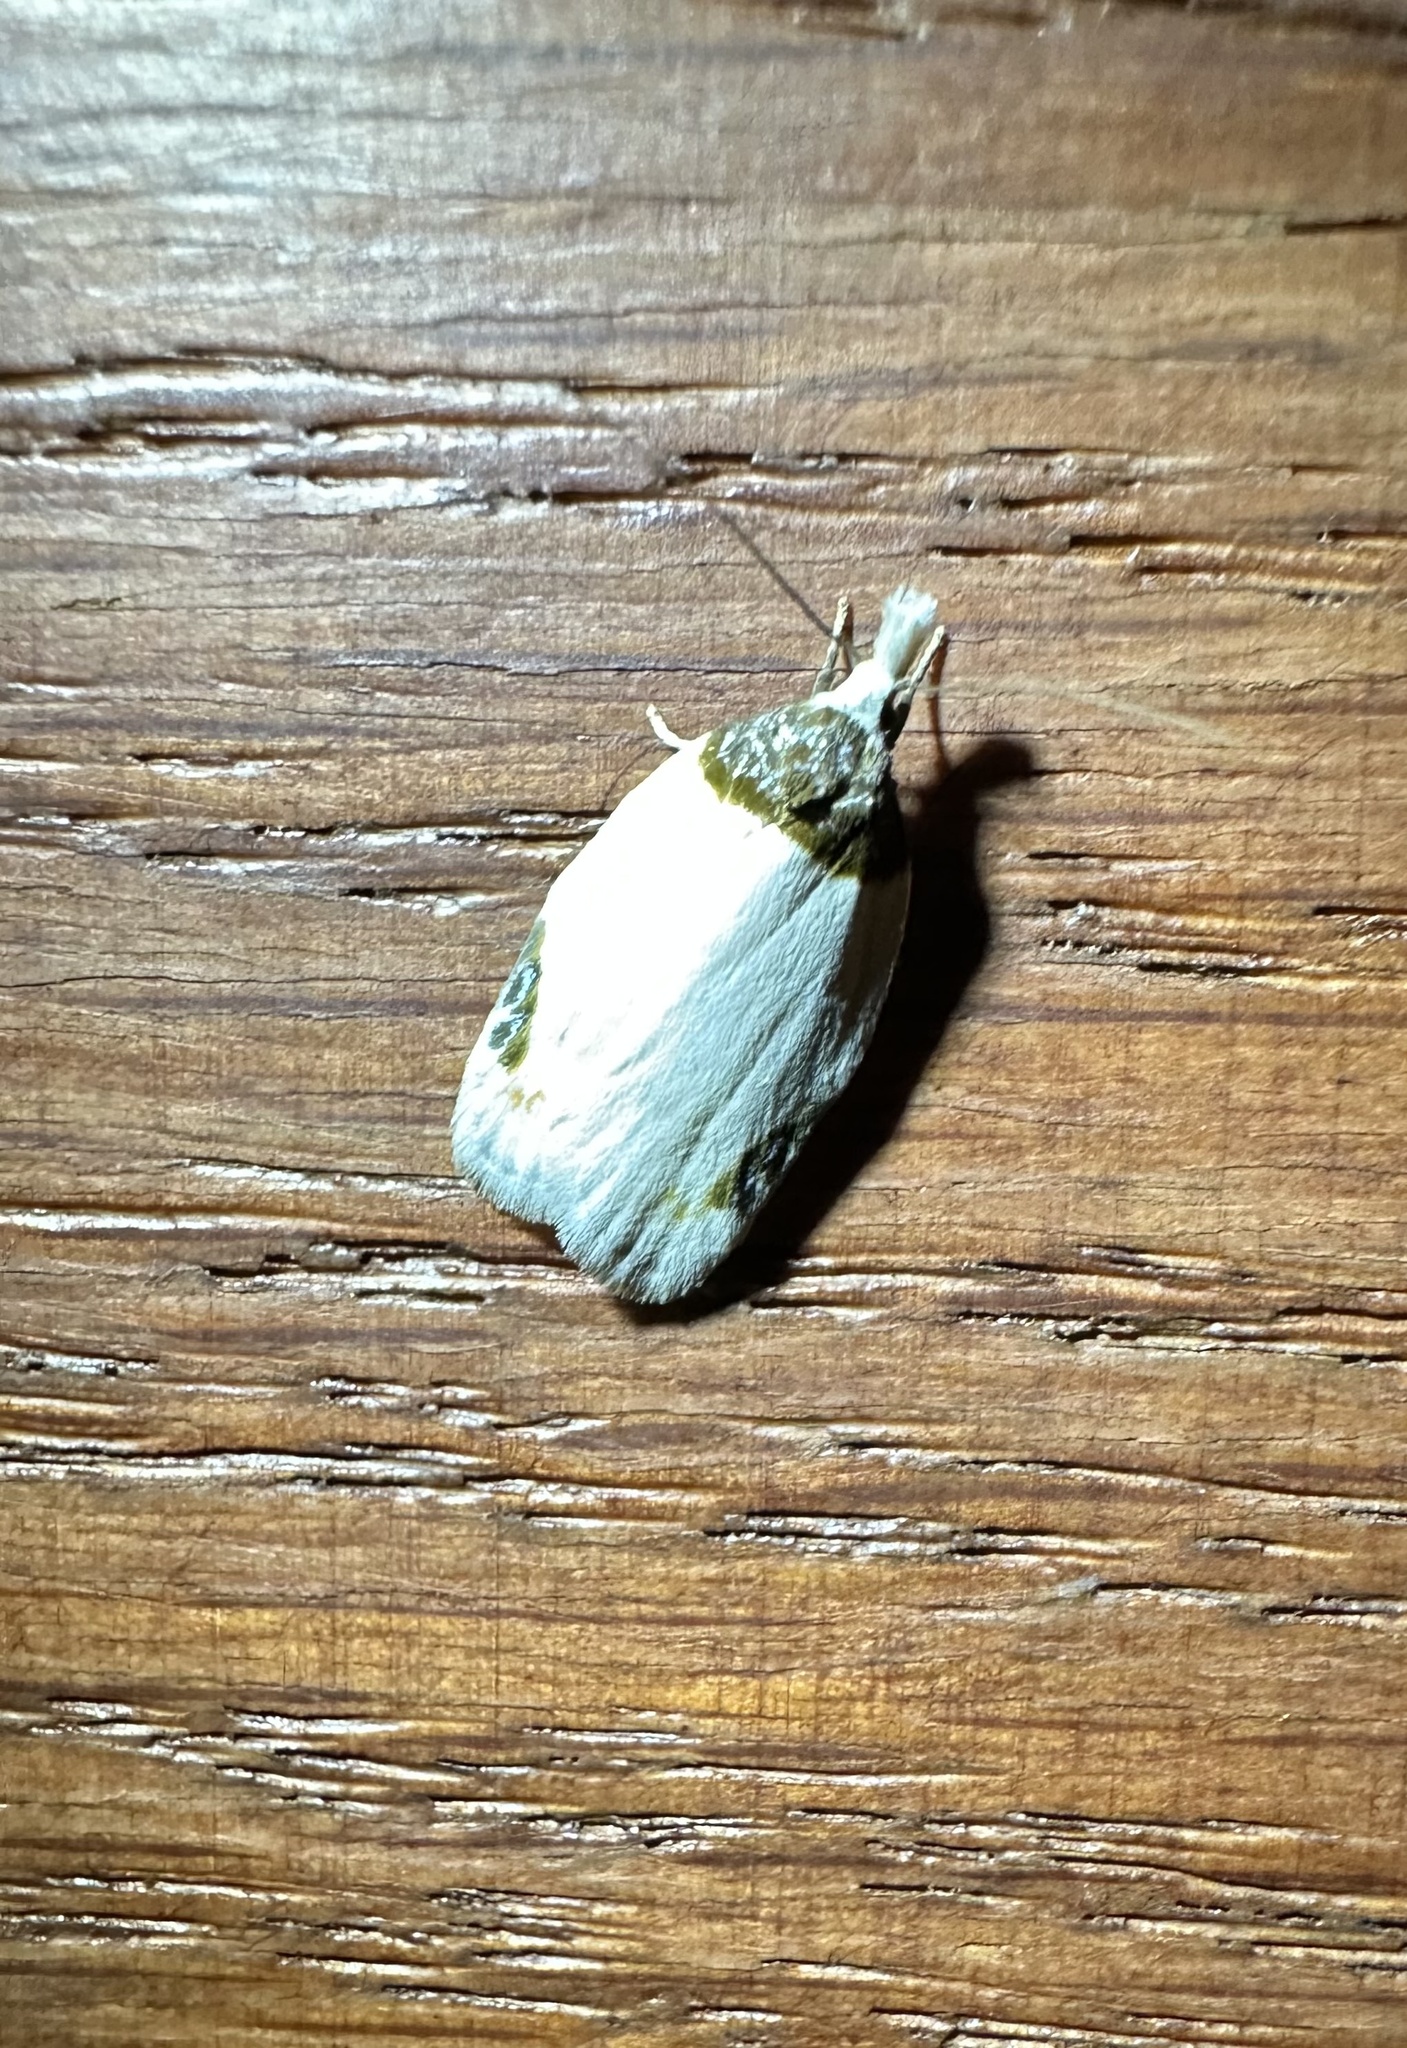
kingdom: Animalia
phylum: Arthropoda
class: Insecta
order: Lepidoptera
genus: Callistenoma
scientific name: Callistenoma
